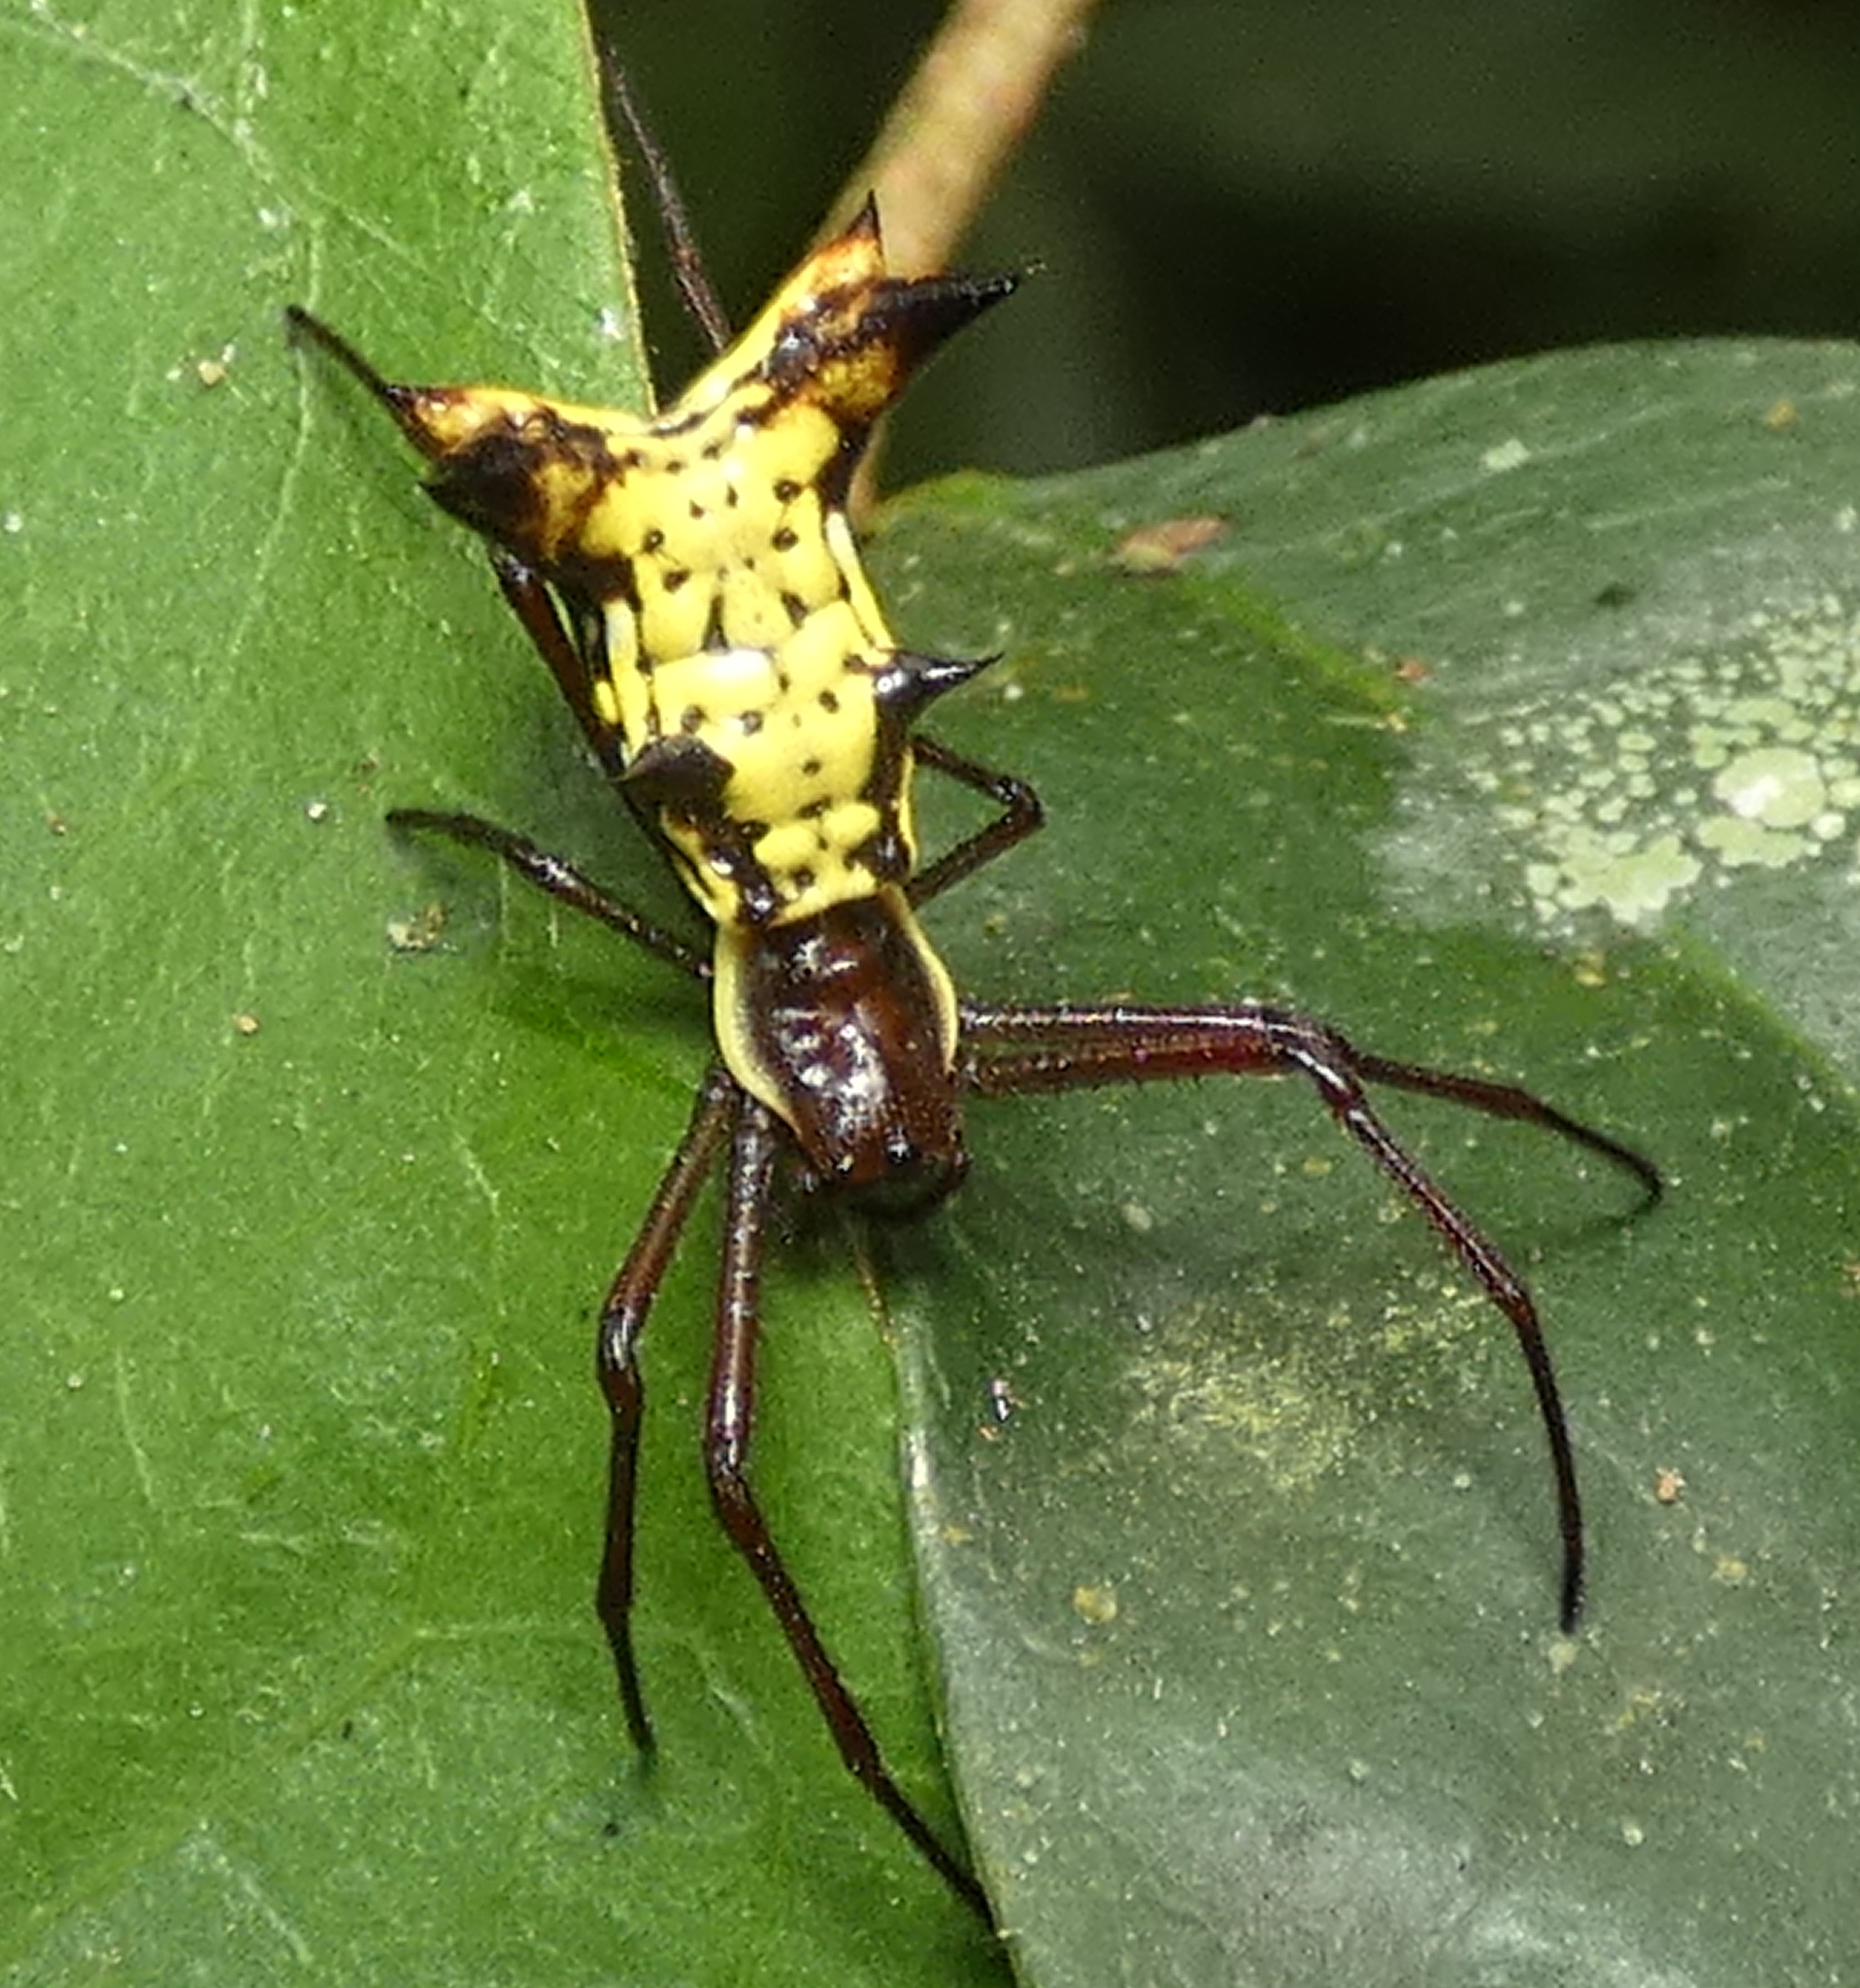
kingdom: Animalia
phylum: Arthropoda
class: Arachnida
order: Araneae
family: Araneidae
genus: Micrathena
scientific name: Micrathena fissispina
